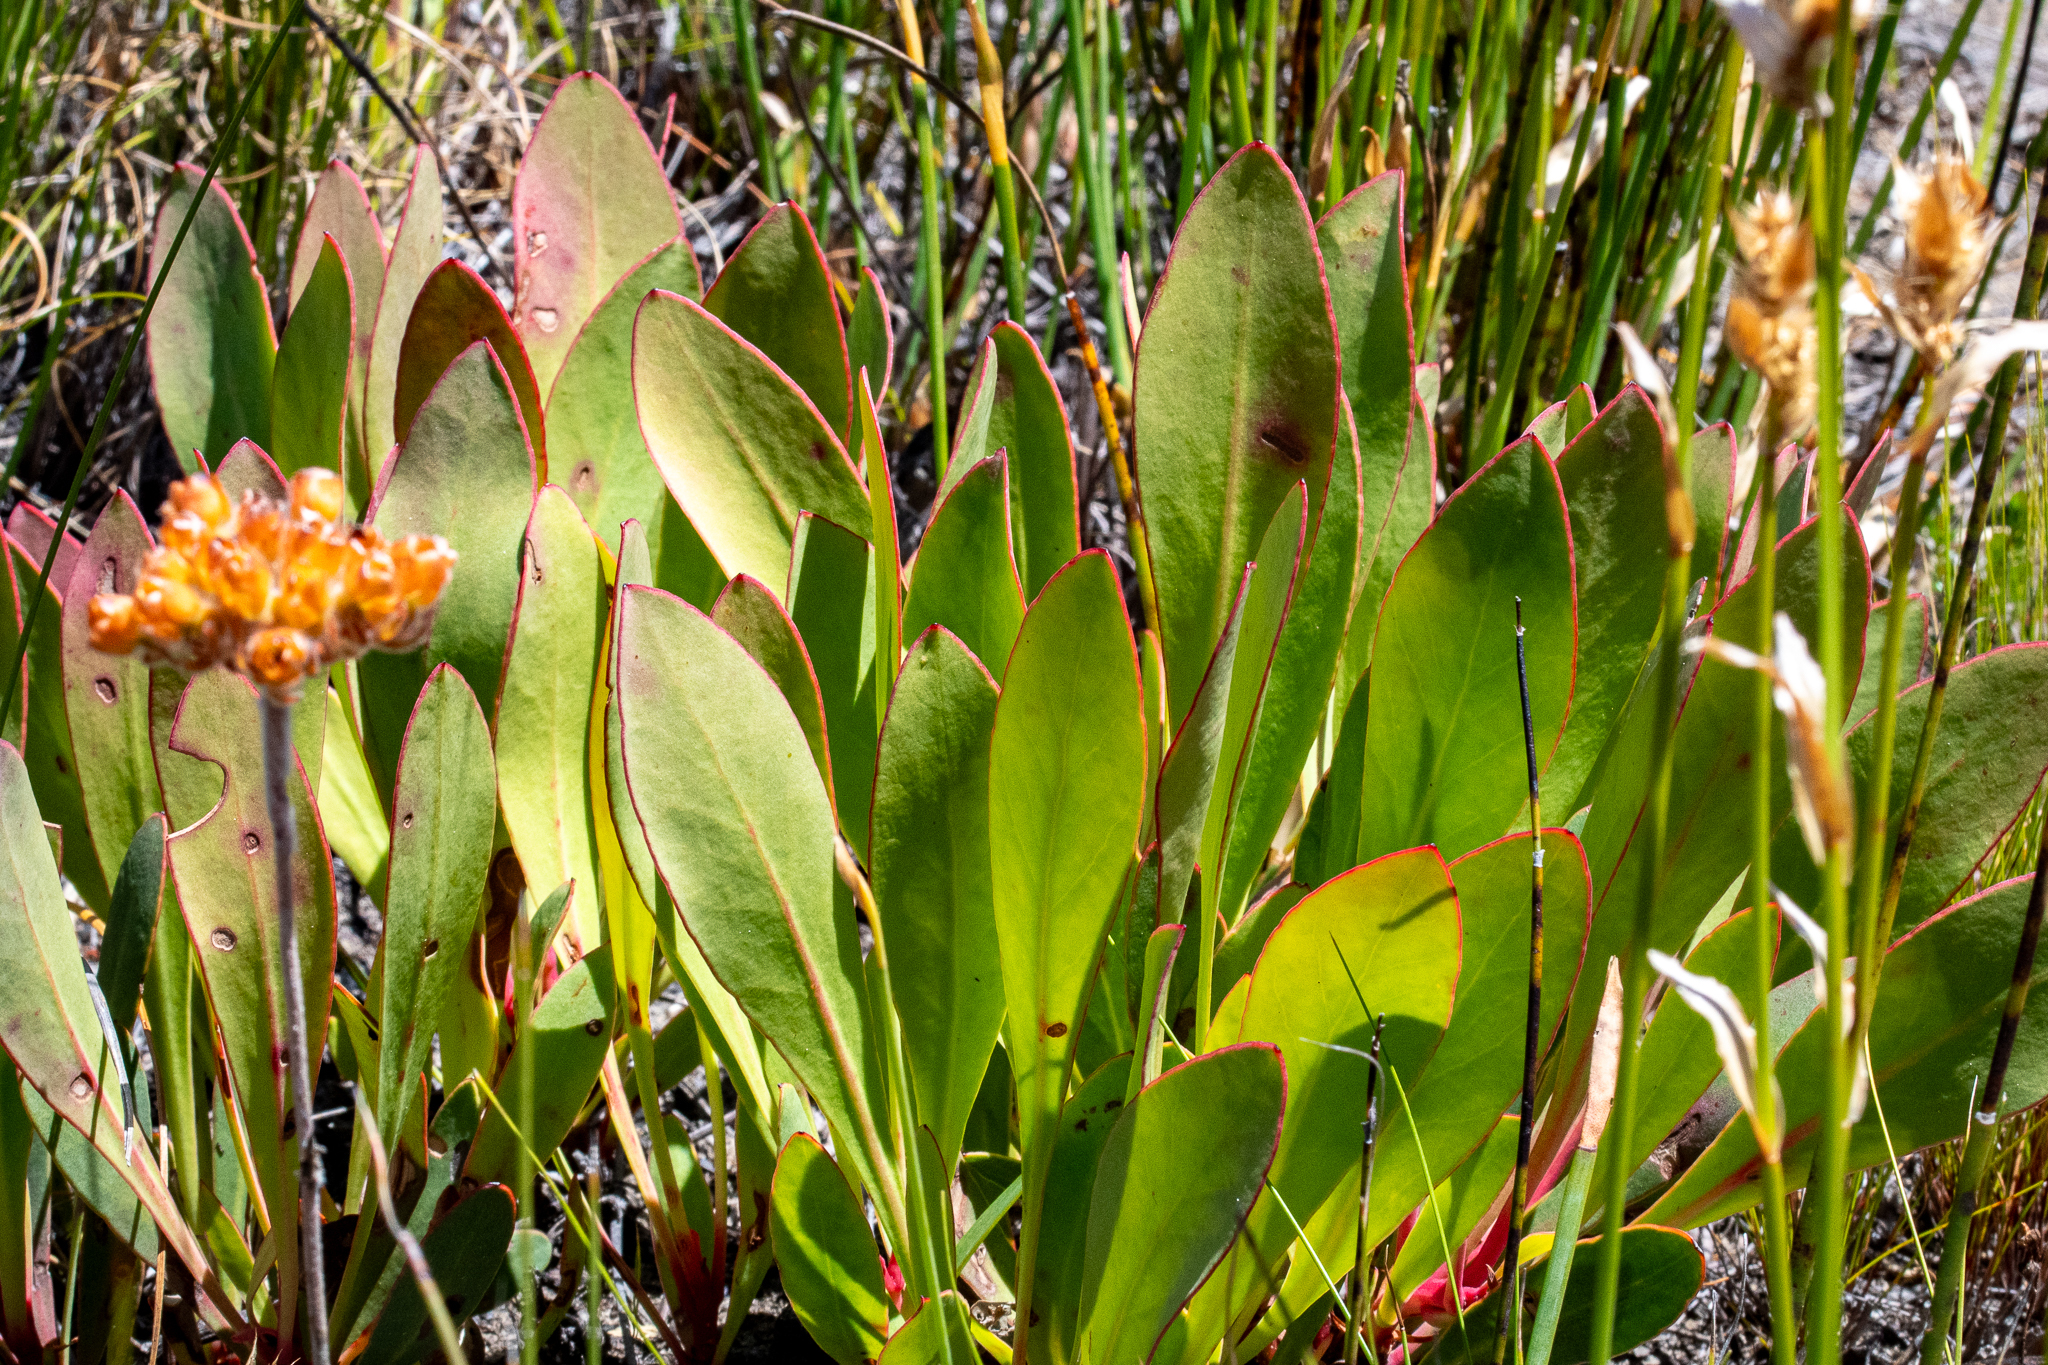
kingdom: Plantae
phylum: Tracheophyta
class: Magnoliopsida
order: Proteales
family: Proteaceae
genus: Protea
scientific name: Protea acaulos
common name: Common ground sugarbush
